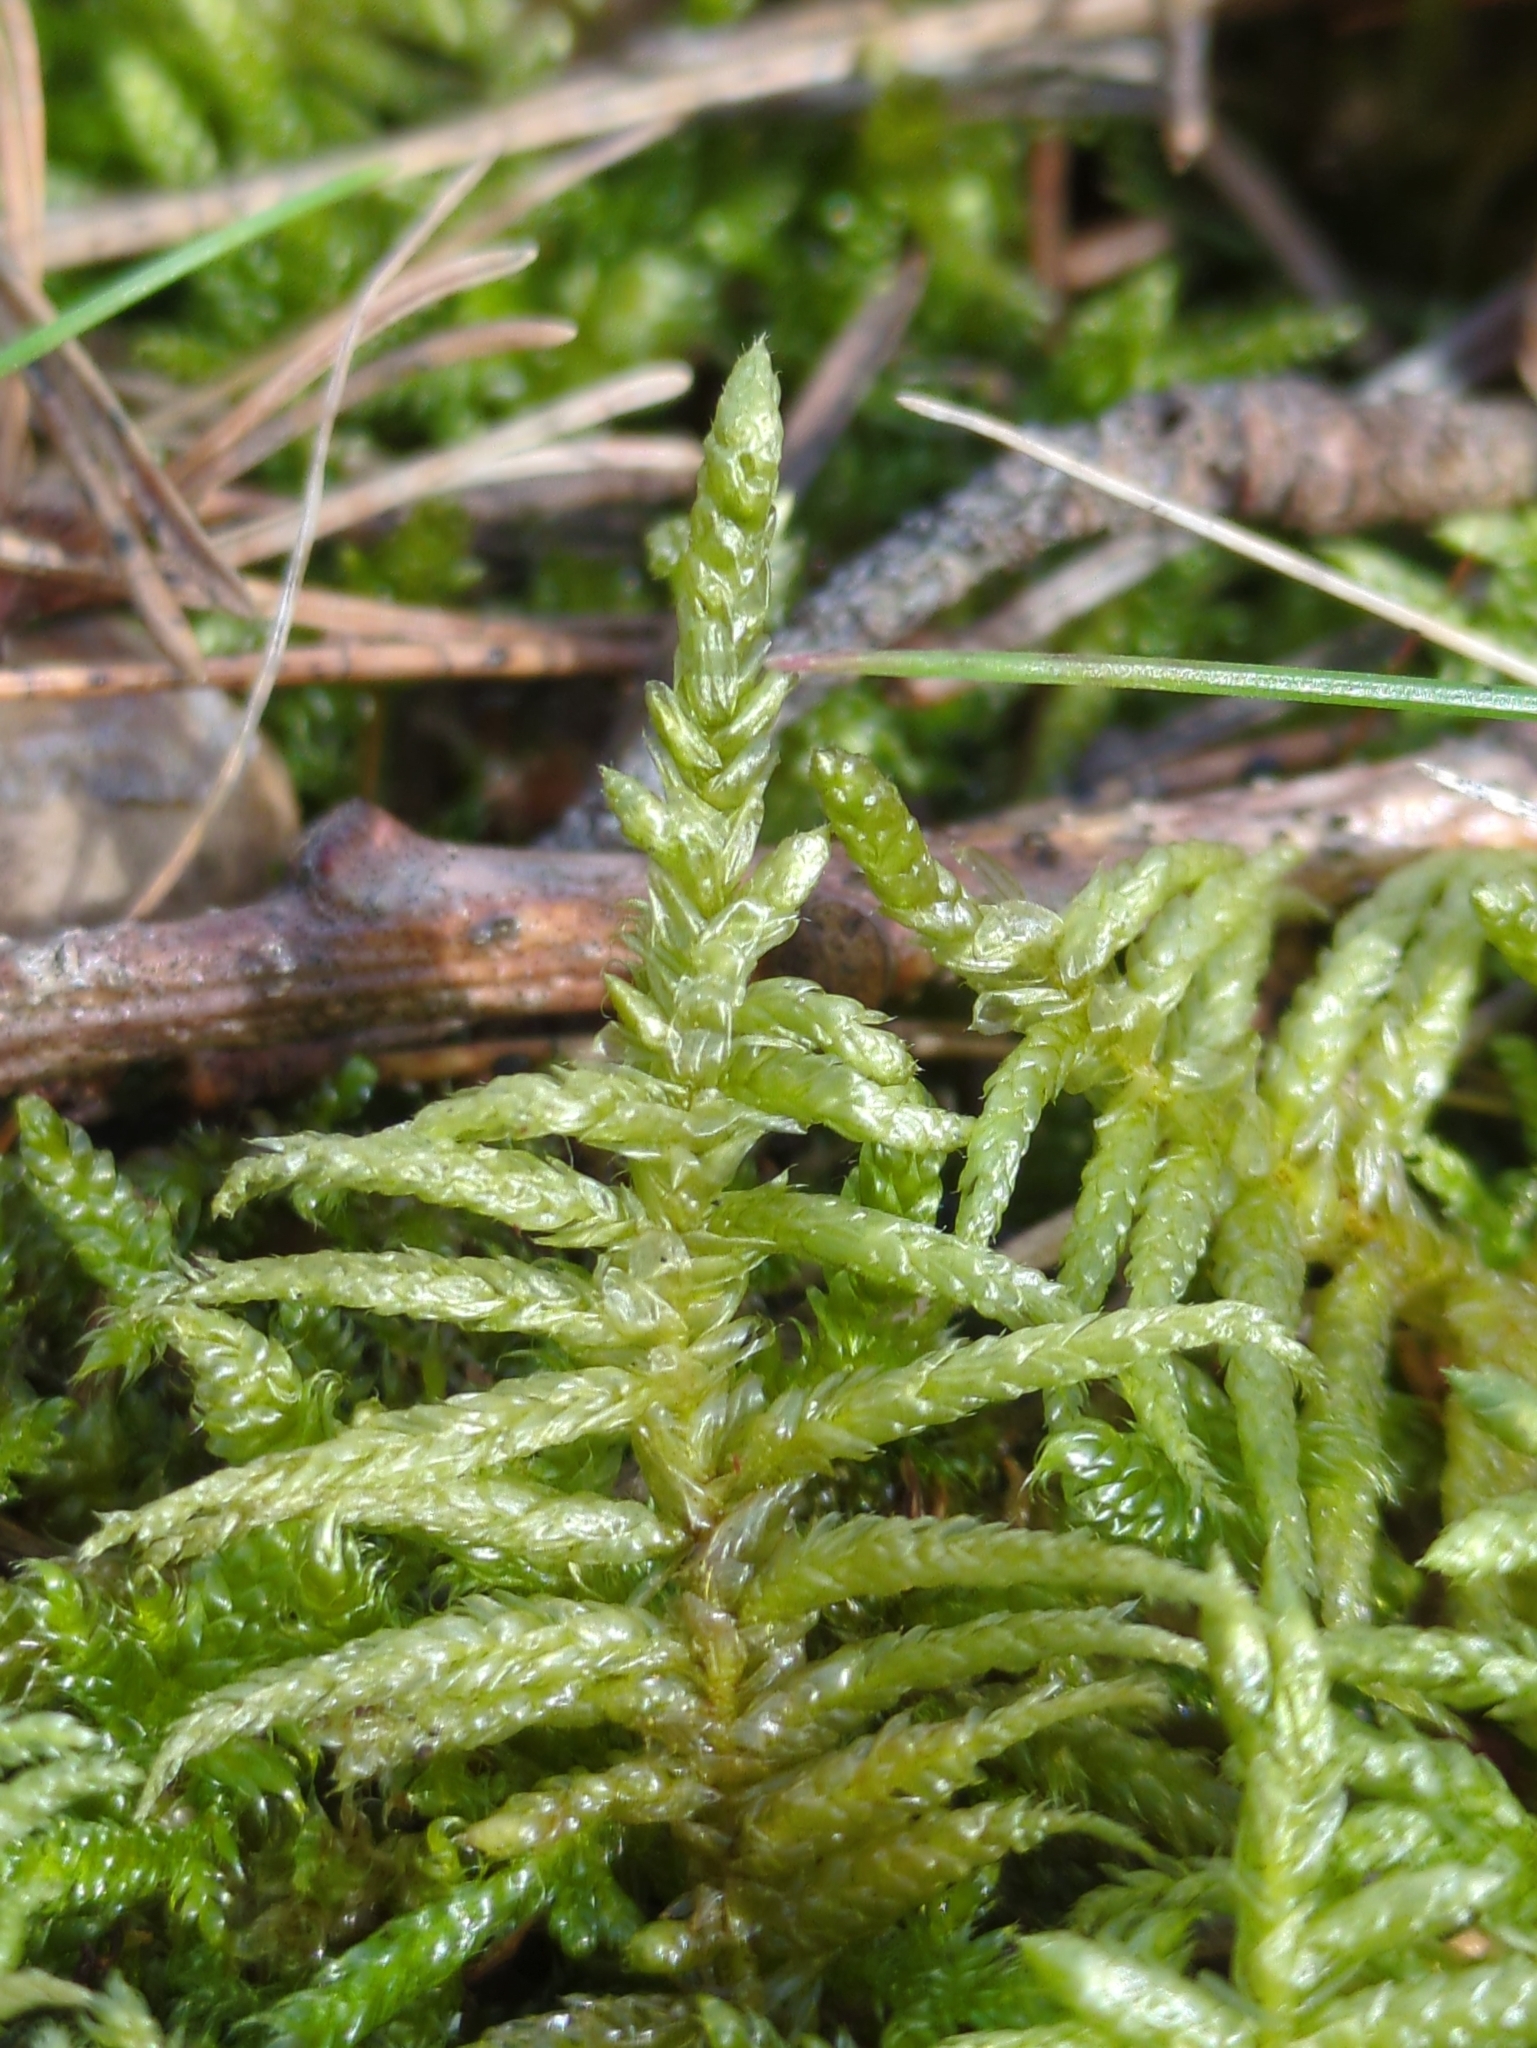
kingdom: Plantae
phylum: Bryophyta
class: Bryopsida
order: Hypnales
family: Brachytheciaceae
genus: Pseudoscleropodium
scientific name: Pseudoscleropodium purum
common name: Neat feather-moss
